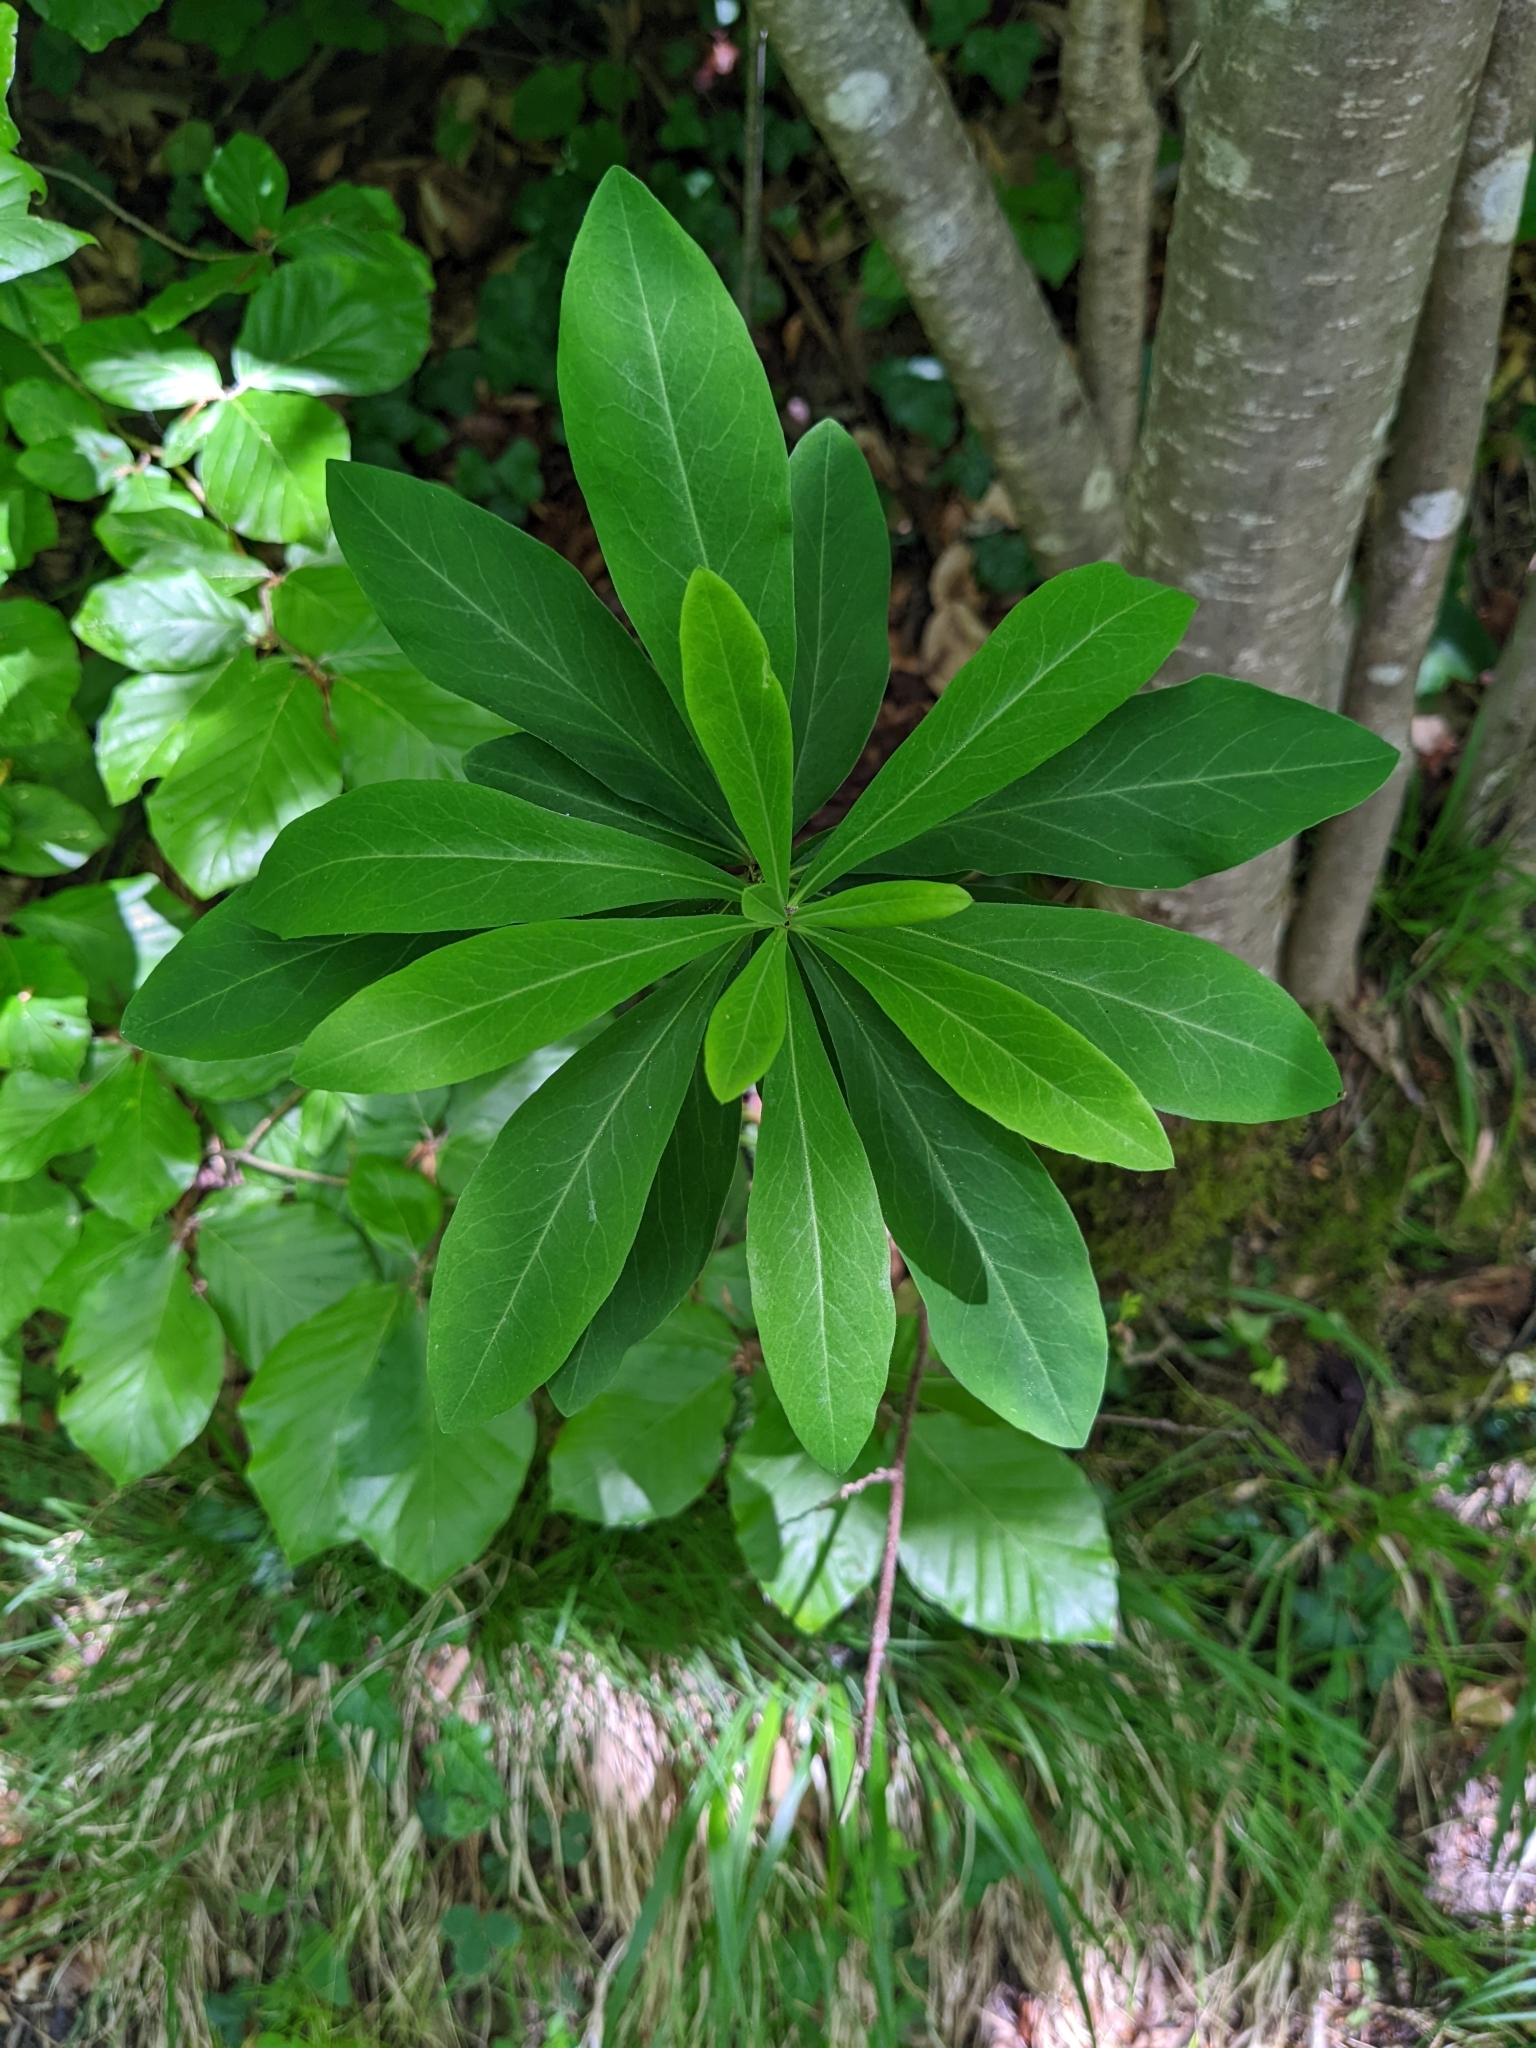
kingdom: Plantae
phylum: Tracheophyta
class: Magnoliopsida
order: Malvales
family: Thymelaeaceae
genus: Daphne
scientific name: Daphne mezereum
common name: Mezereon
